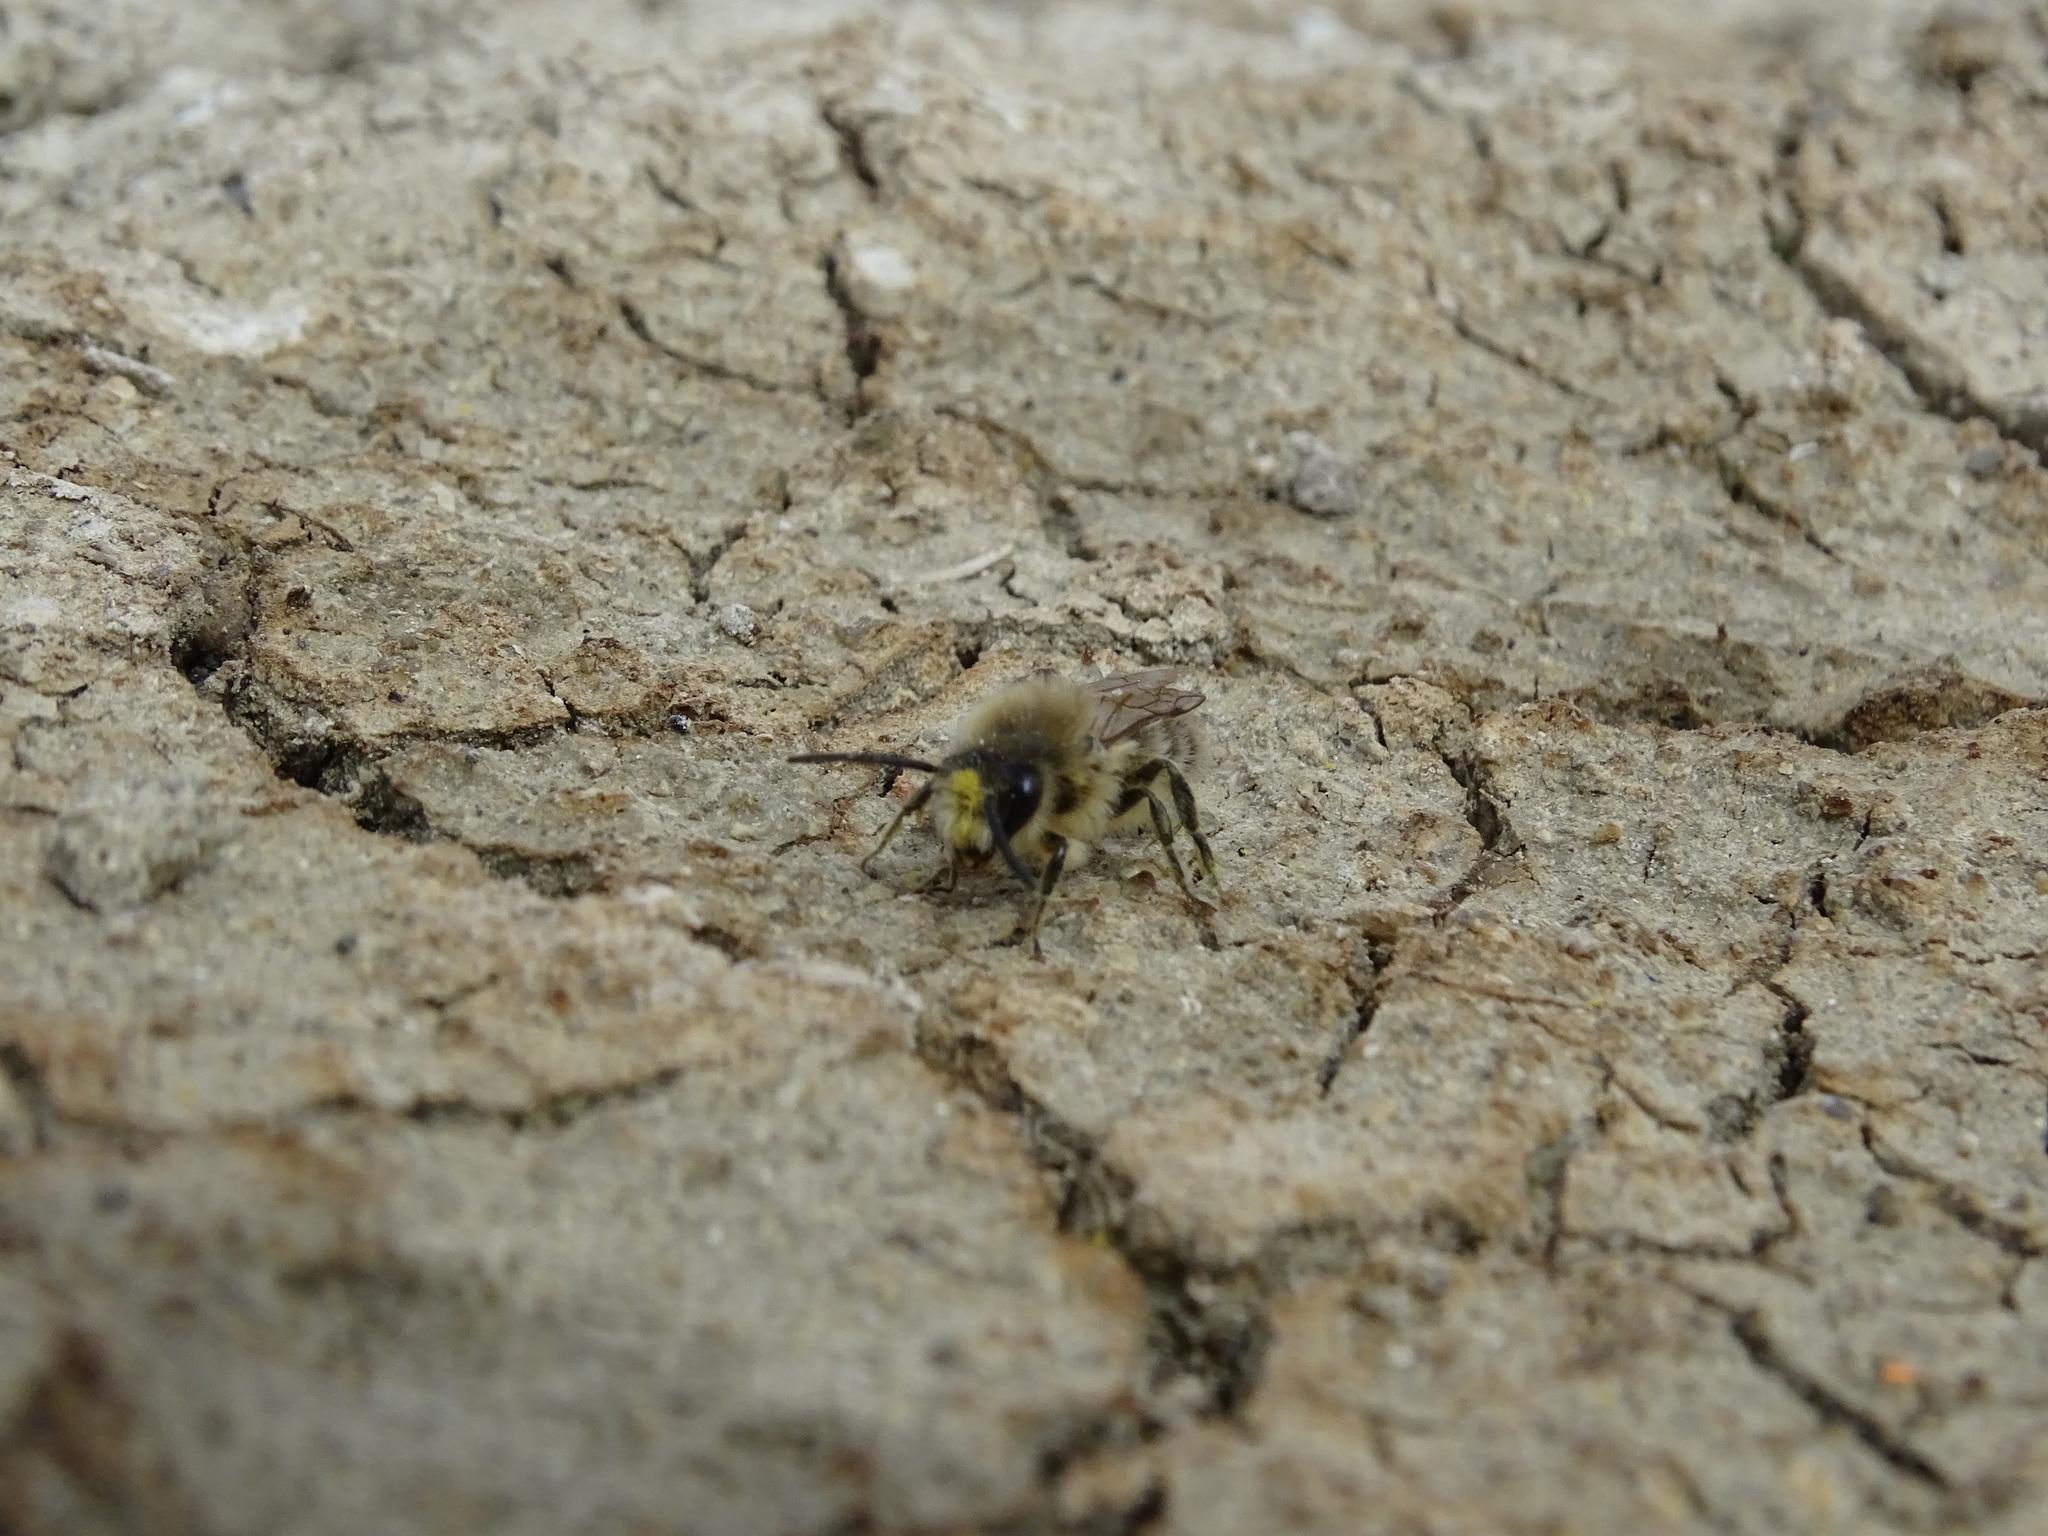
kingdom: Animalia
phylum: Arthropoda
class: Insecta
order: Hymenoptera
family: Colletidae
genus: Colletes
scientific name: Colletes cunicularius
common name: Early colletes
